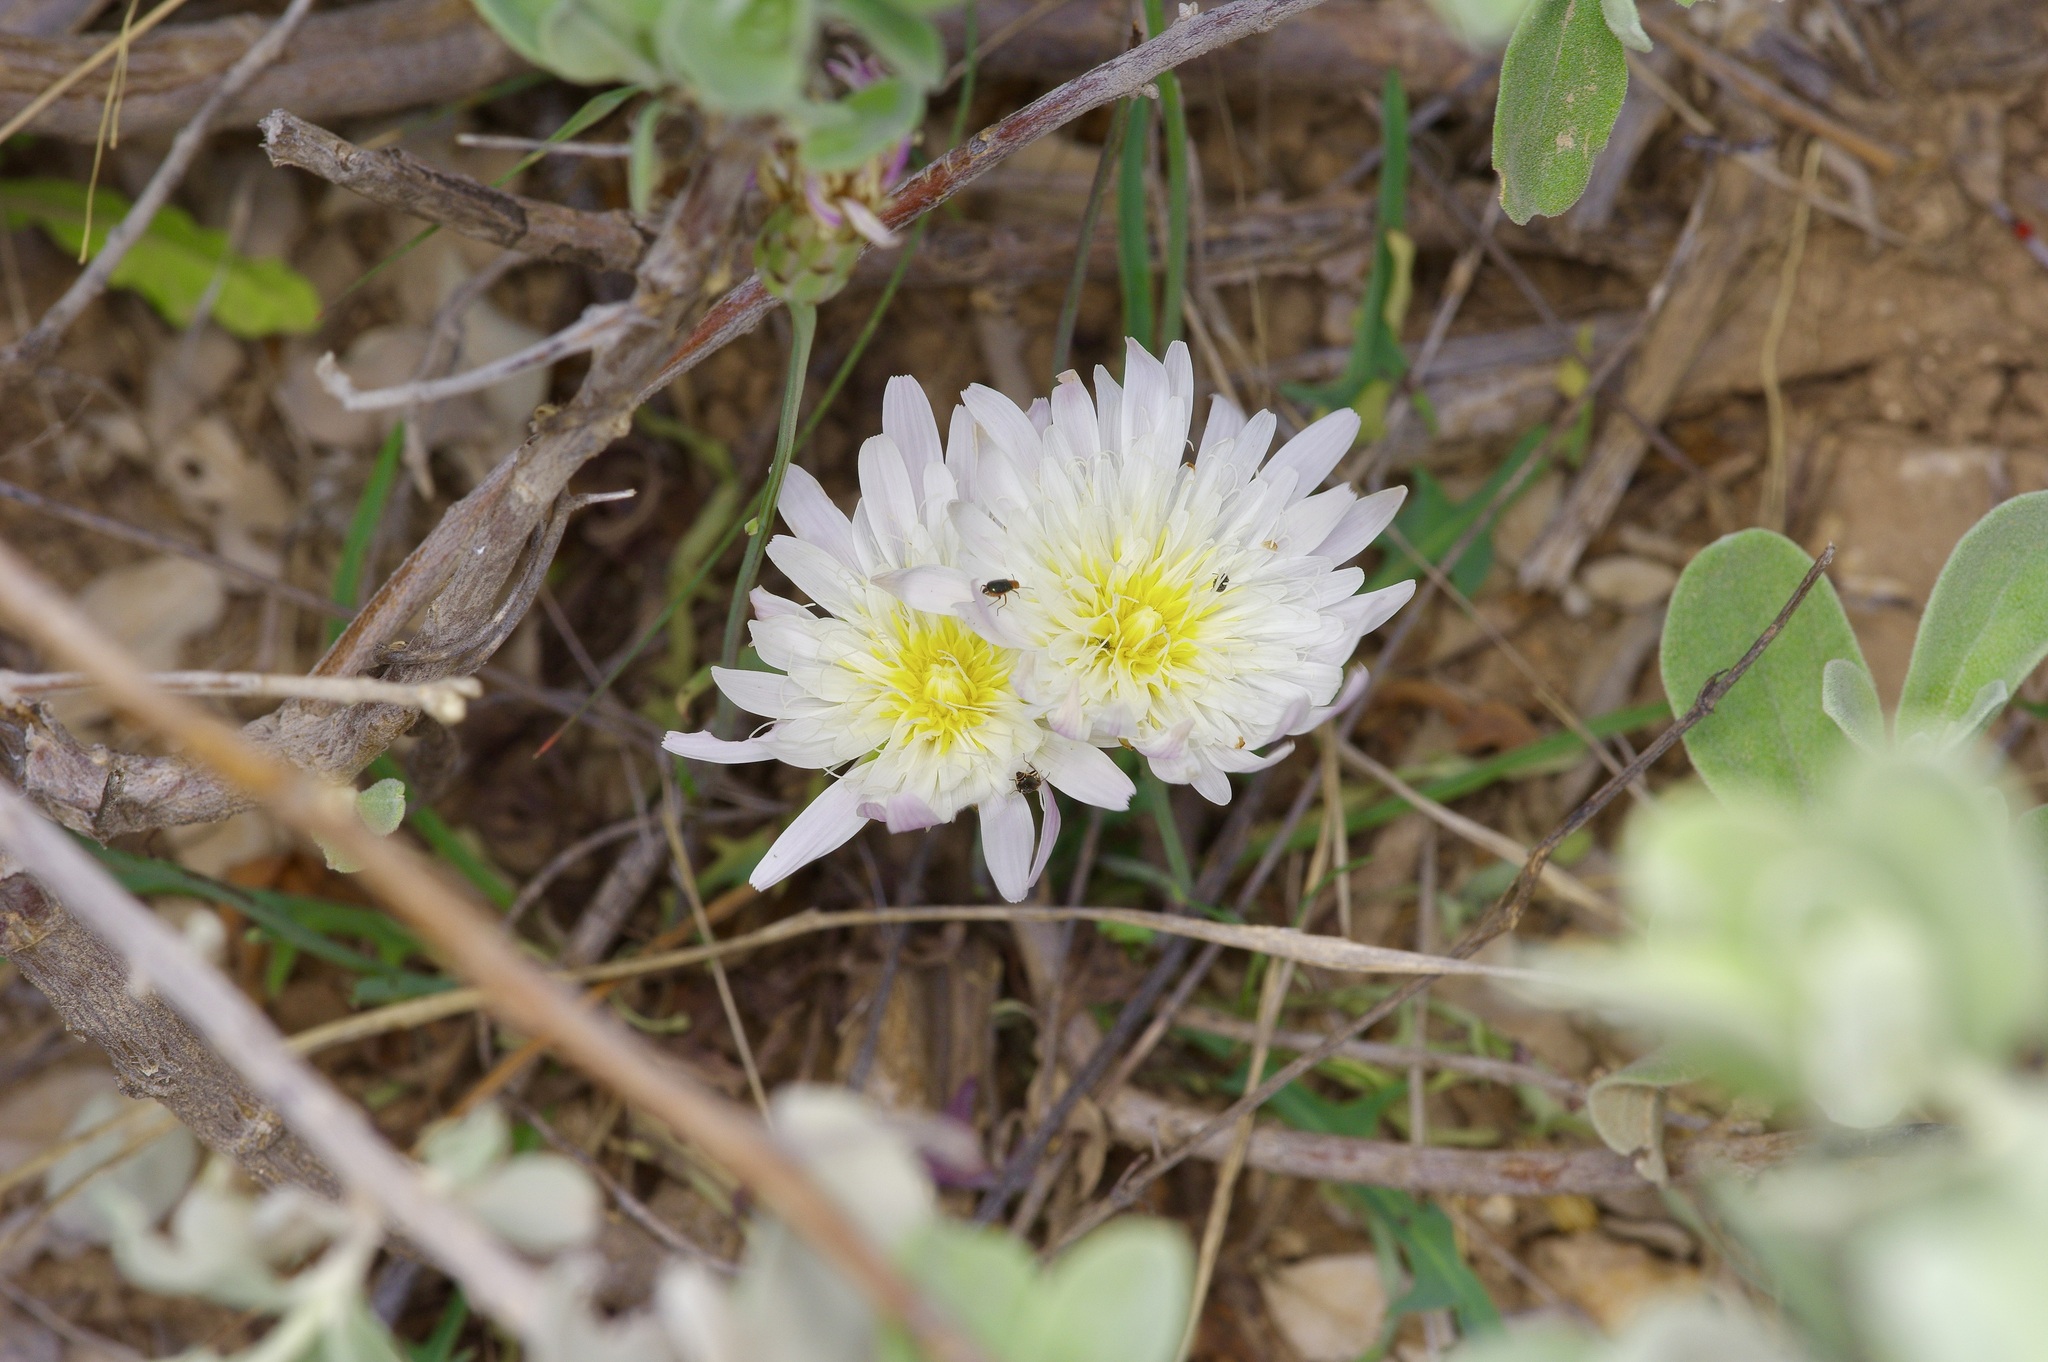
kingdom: Plantae
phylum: Tracheophyta
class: Magnoliopsida
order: Asterales
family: Asteraceae
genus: Pinaropappus
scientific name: Pinaropappus roseus
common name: Rock-lettuce
